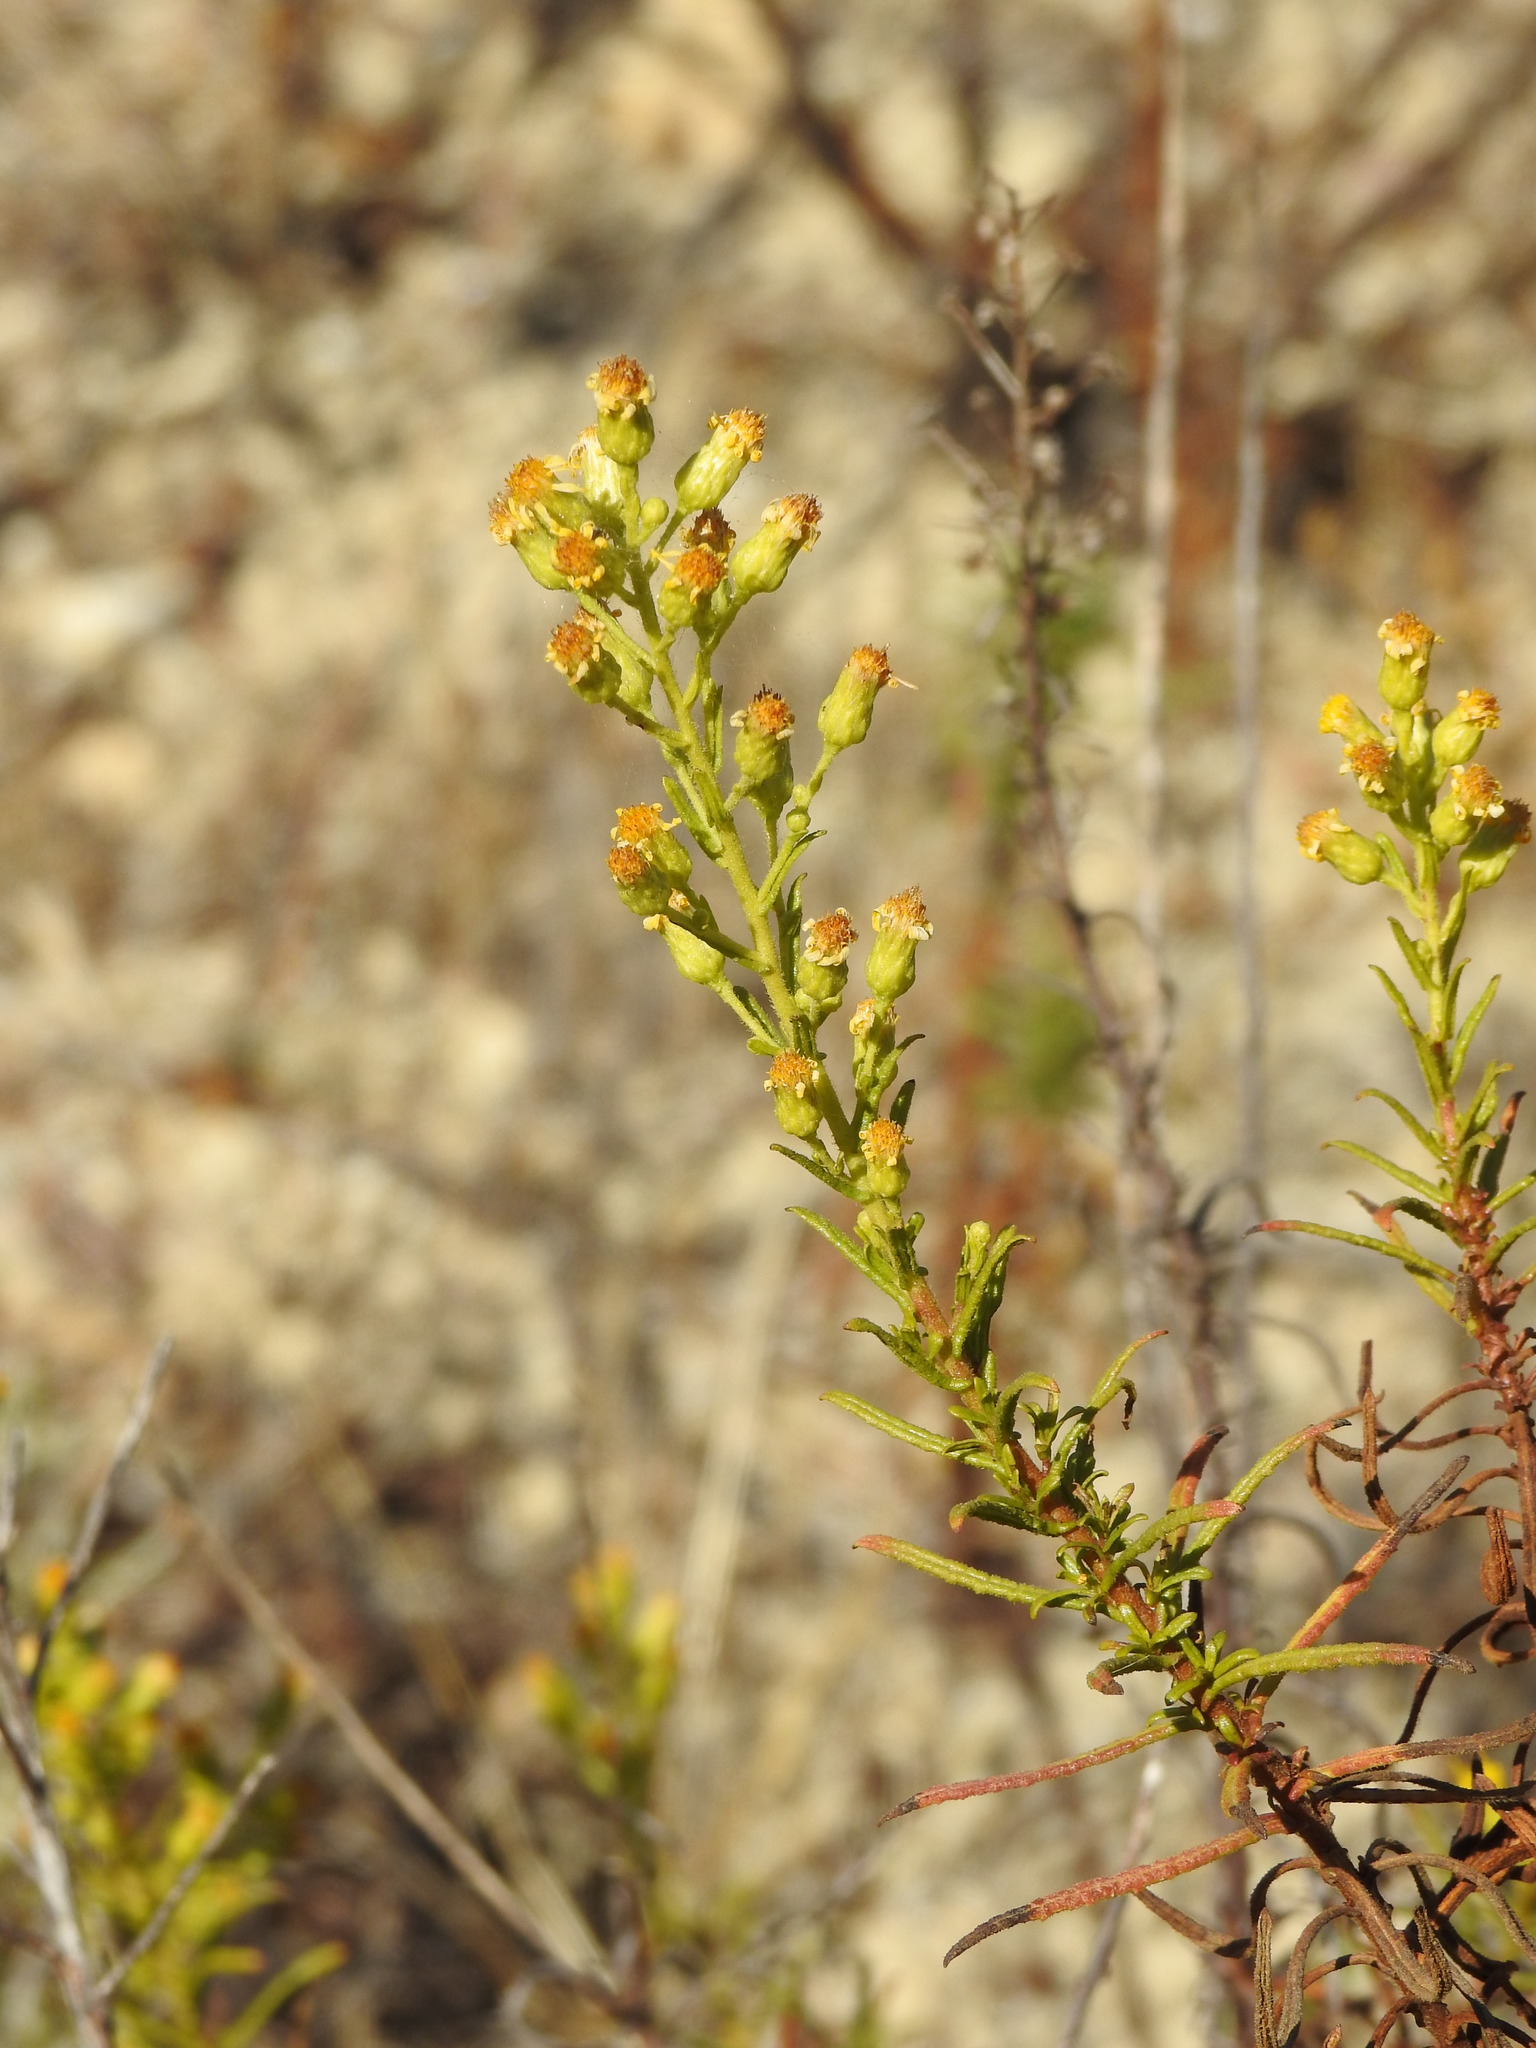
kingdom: Plantae
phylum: Tracheophyta
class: Magnoliopsida
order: Asterales
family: Asteraceae
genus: Dittrichia
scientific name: Dittrichia viscosa
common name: Woody fleabane
